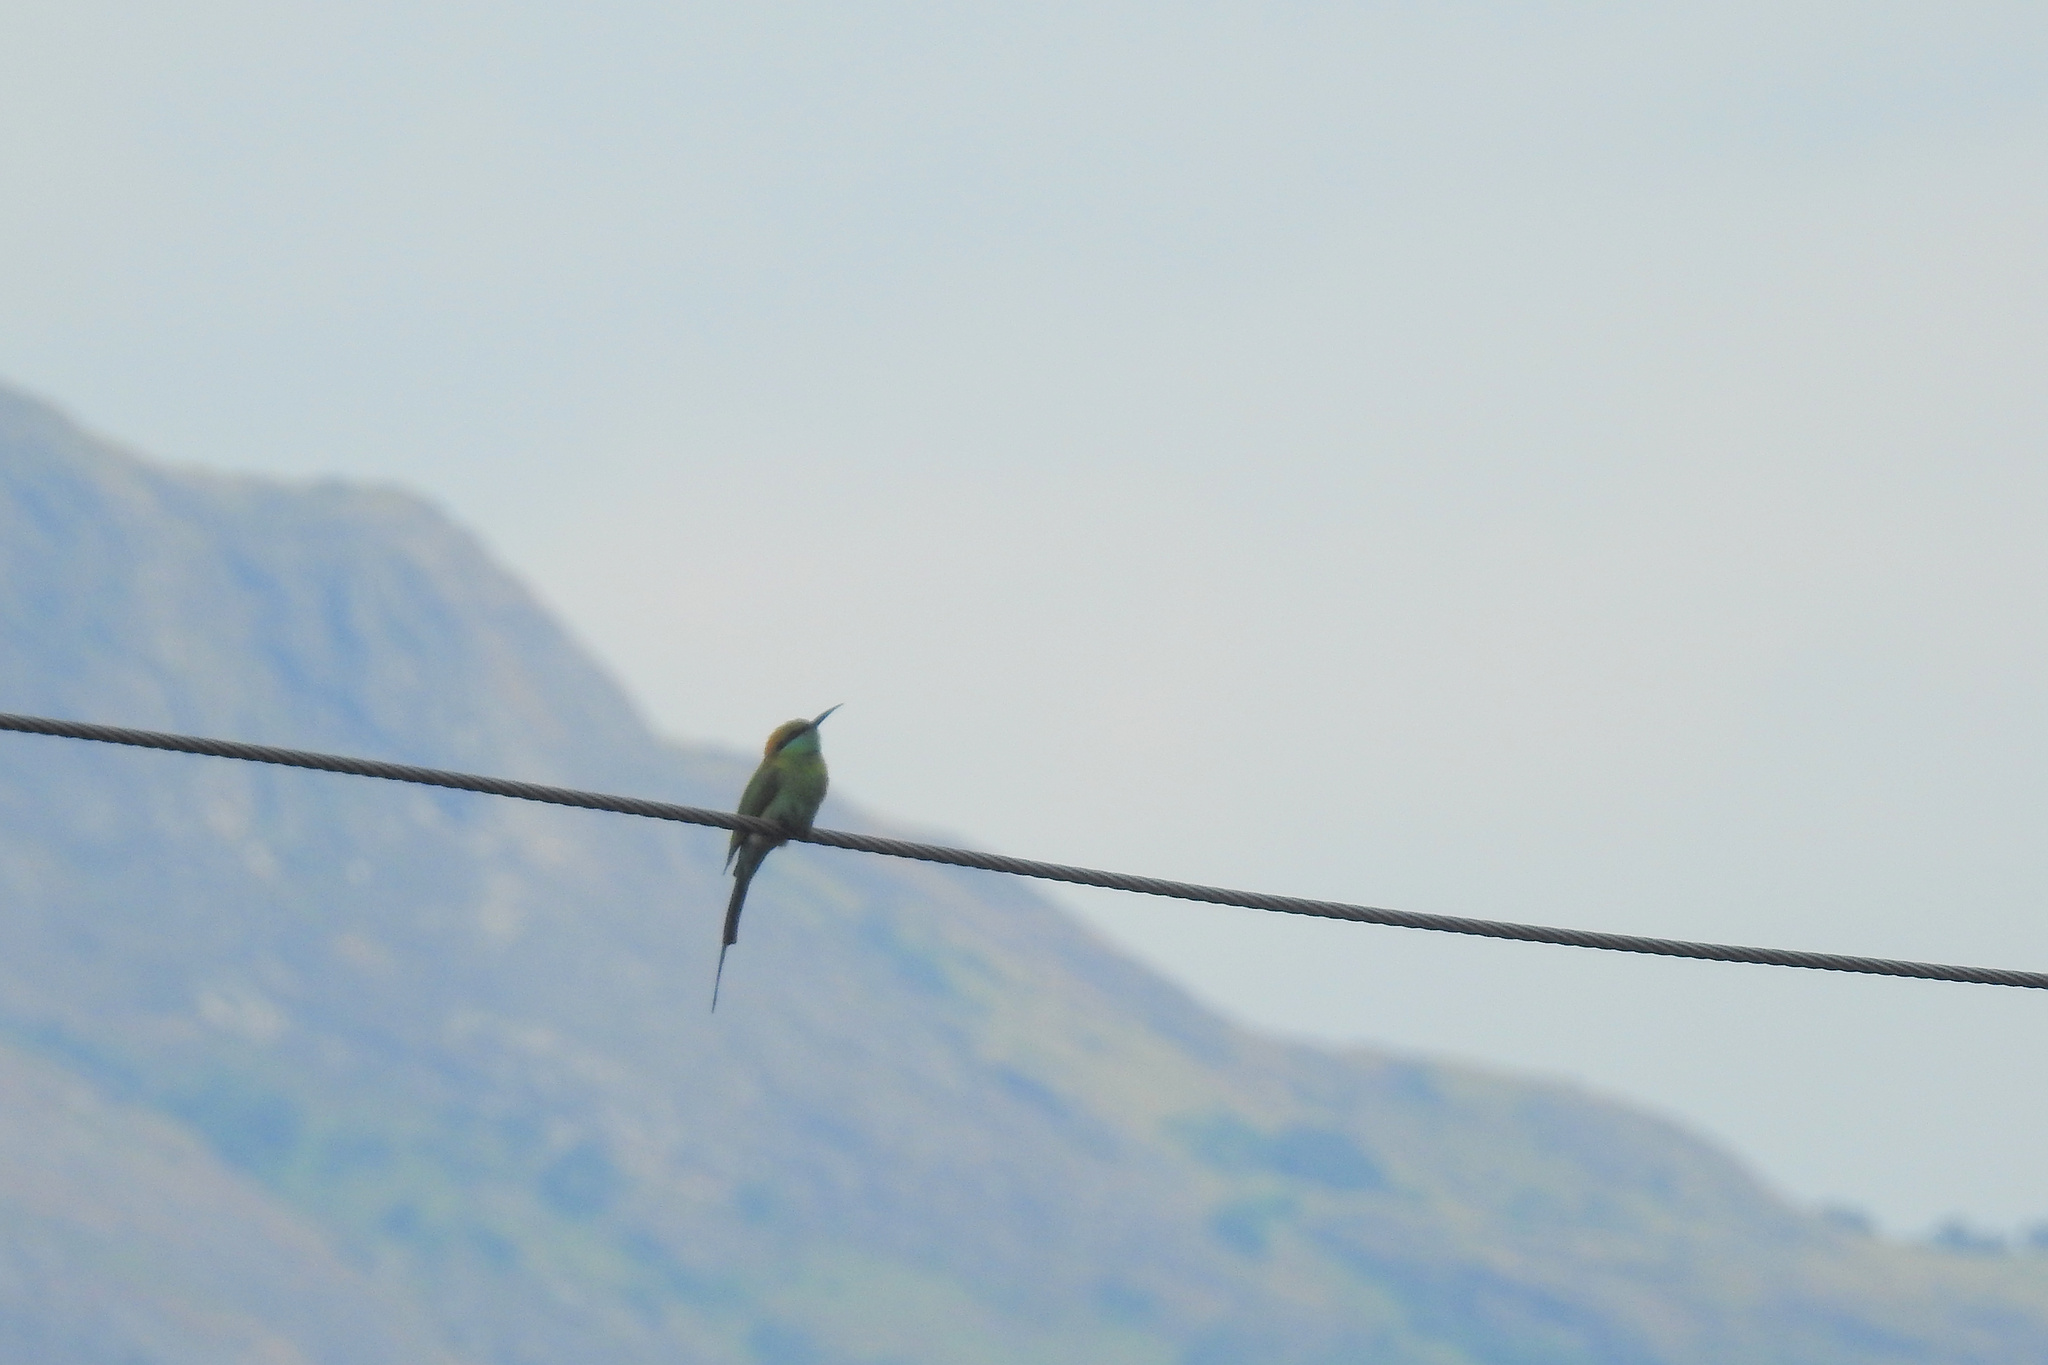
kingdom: Animalia
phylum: Chordata
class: Aves
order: Coraciiformes
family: Meropidae
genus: Merops
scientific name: Merops orientalis
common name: Green bee-eater
